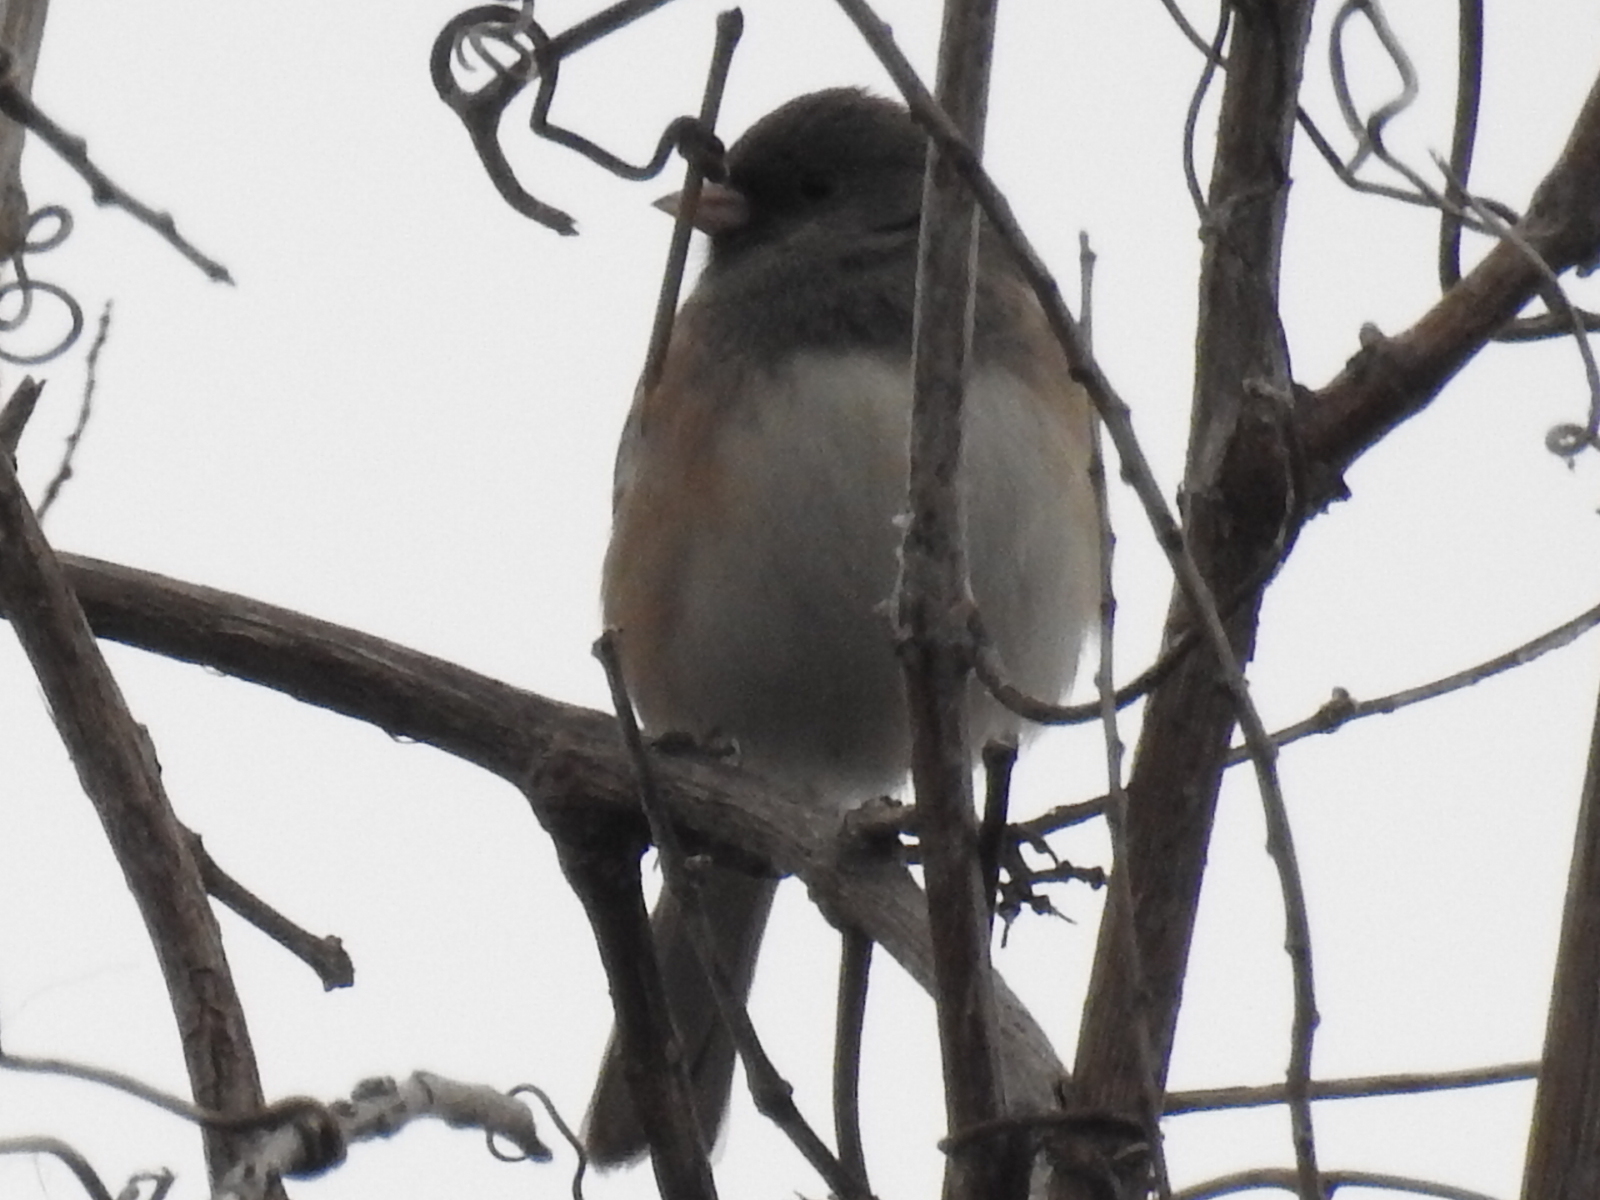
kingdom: Animalia
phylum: Chordata
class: Aves
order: Passeriformes
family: Passerellidae
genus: Junco
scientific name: Junco hyemalis
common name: Dark-eyed junco
